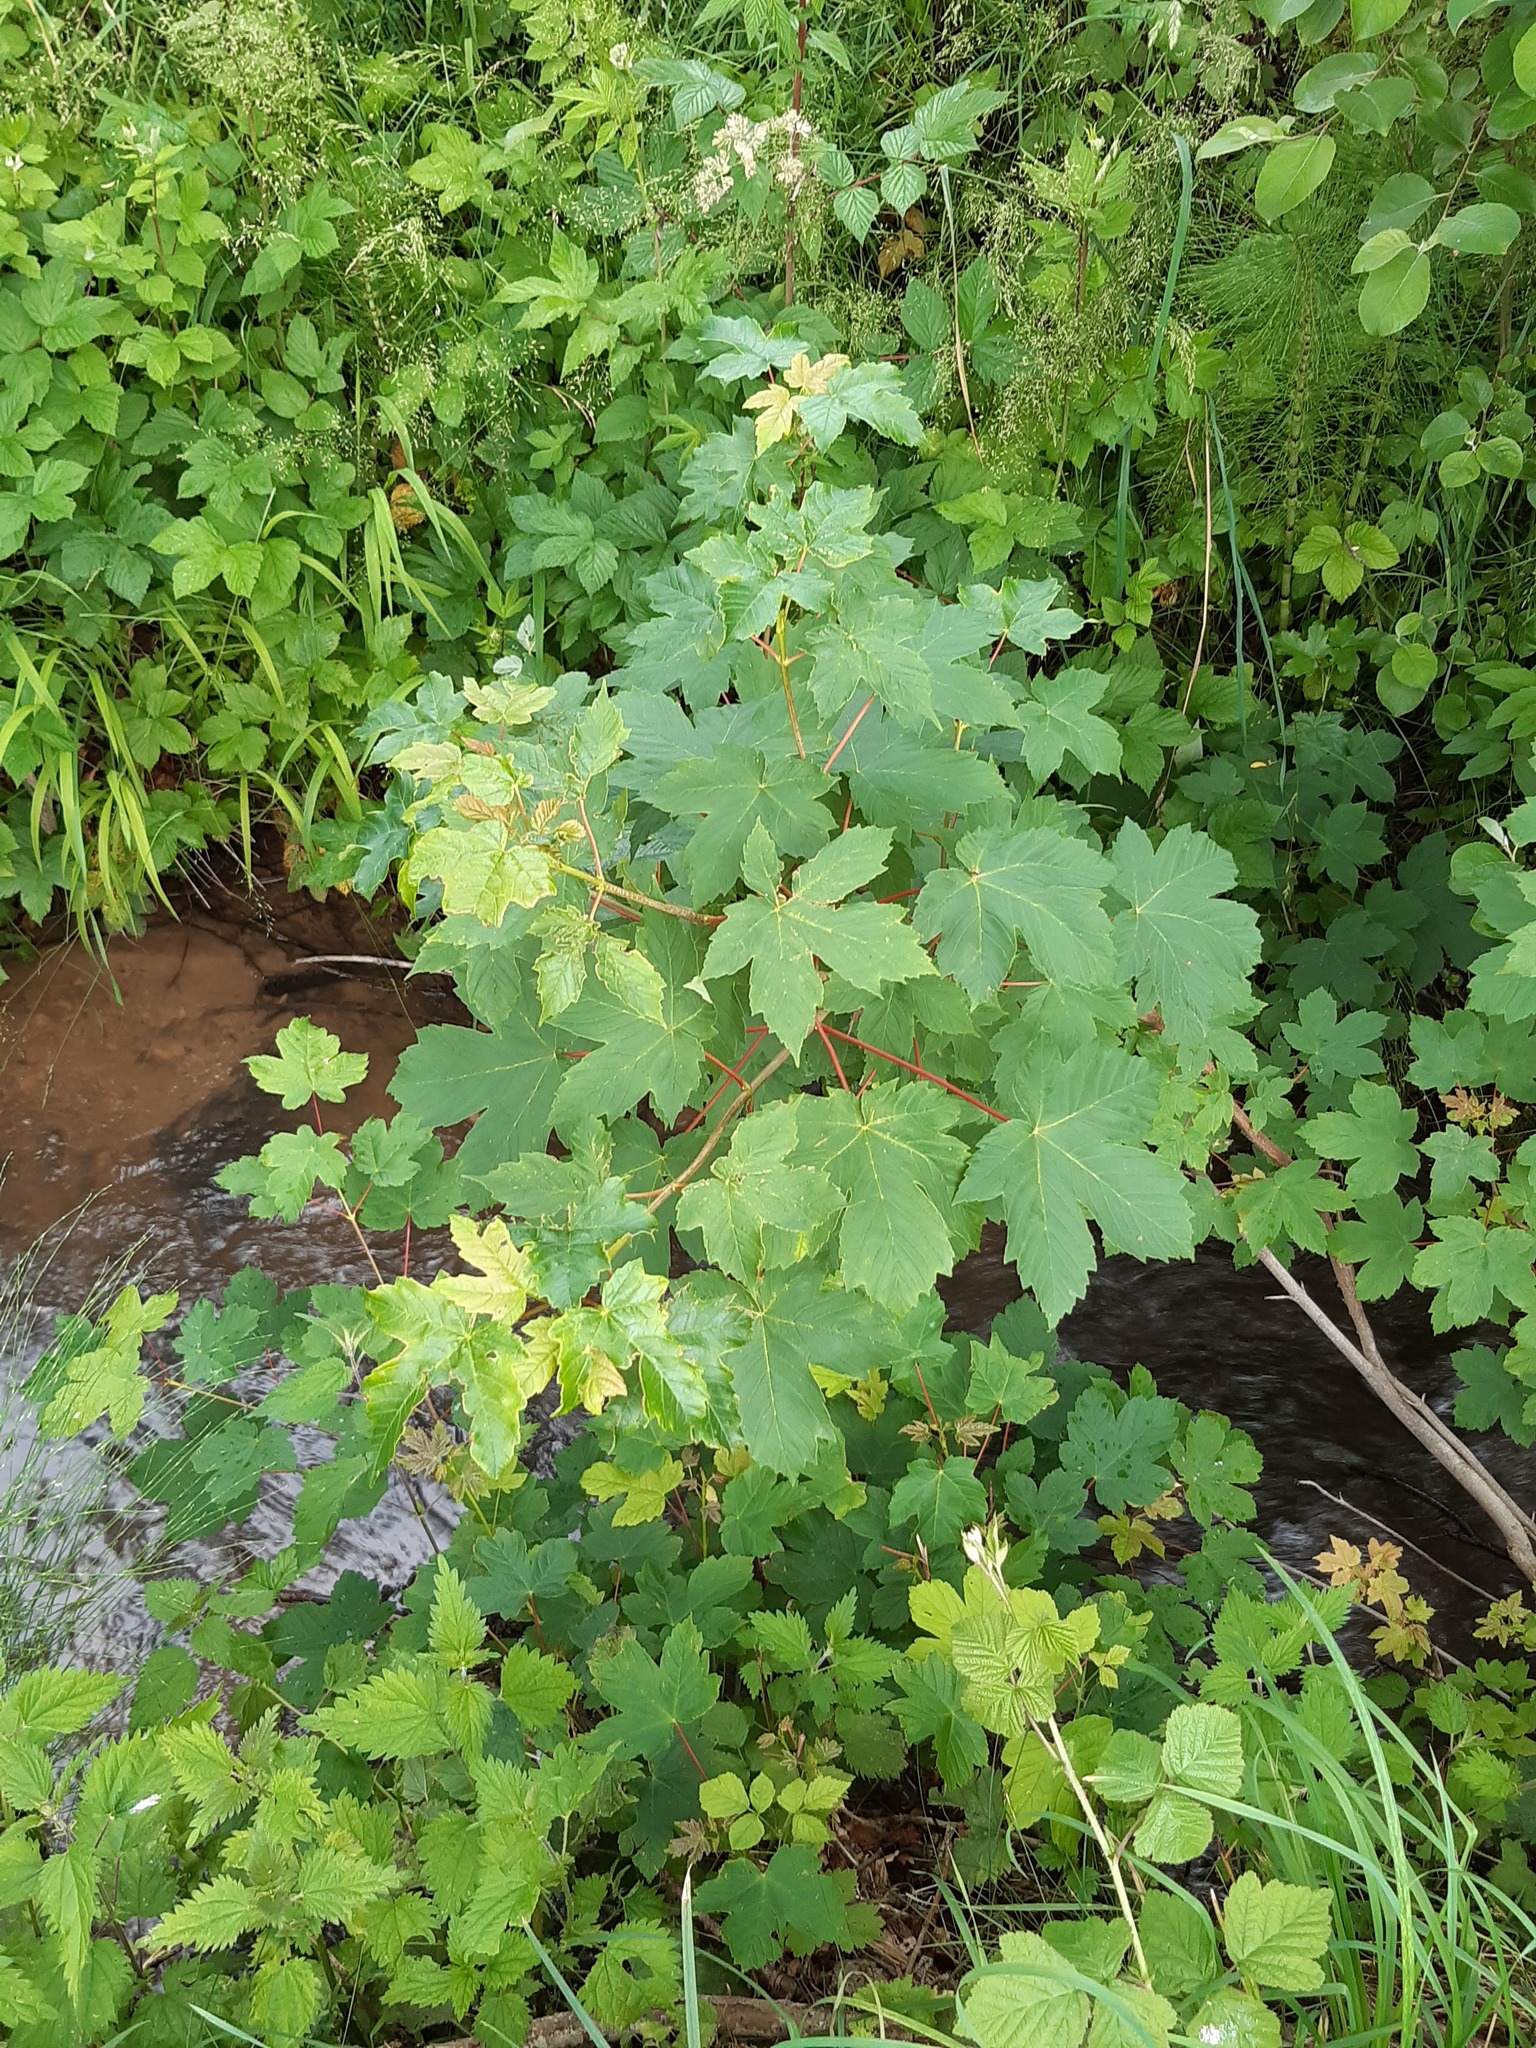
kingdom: Plantae
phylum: Tracheophyta
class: Magnoliopsida
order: Sapindales
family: Sapindaceae
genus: Acer
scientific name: Acer pseudoplatanus
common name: Sycamore
